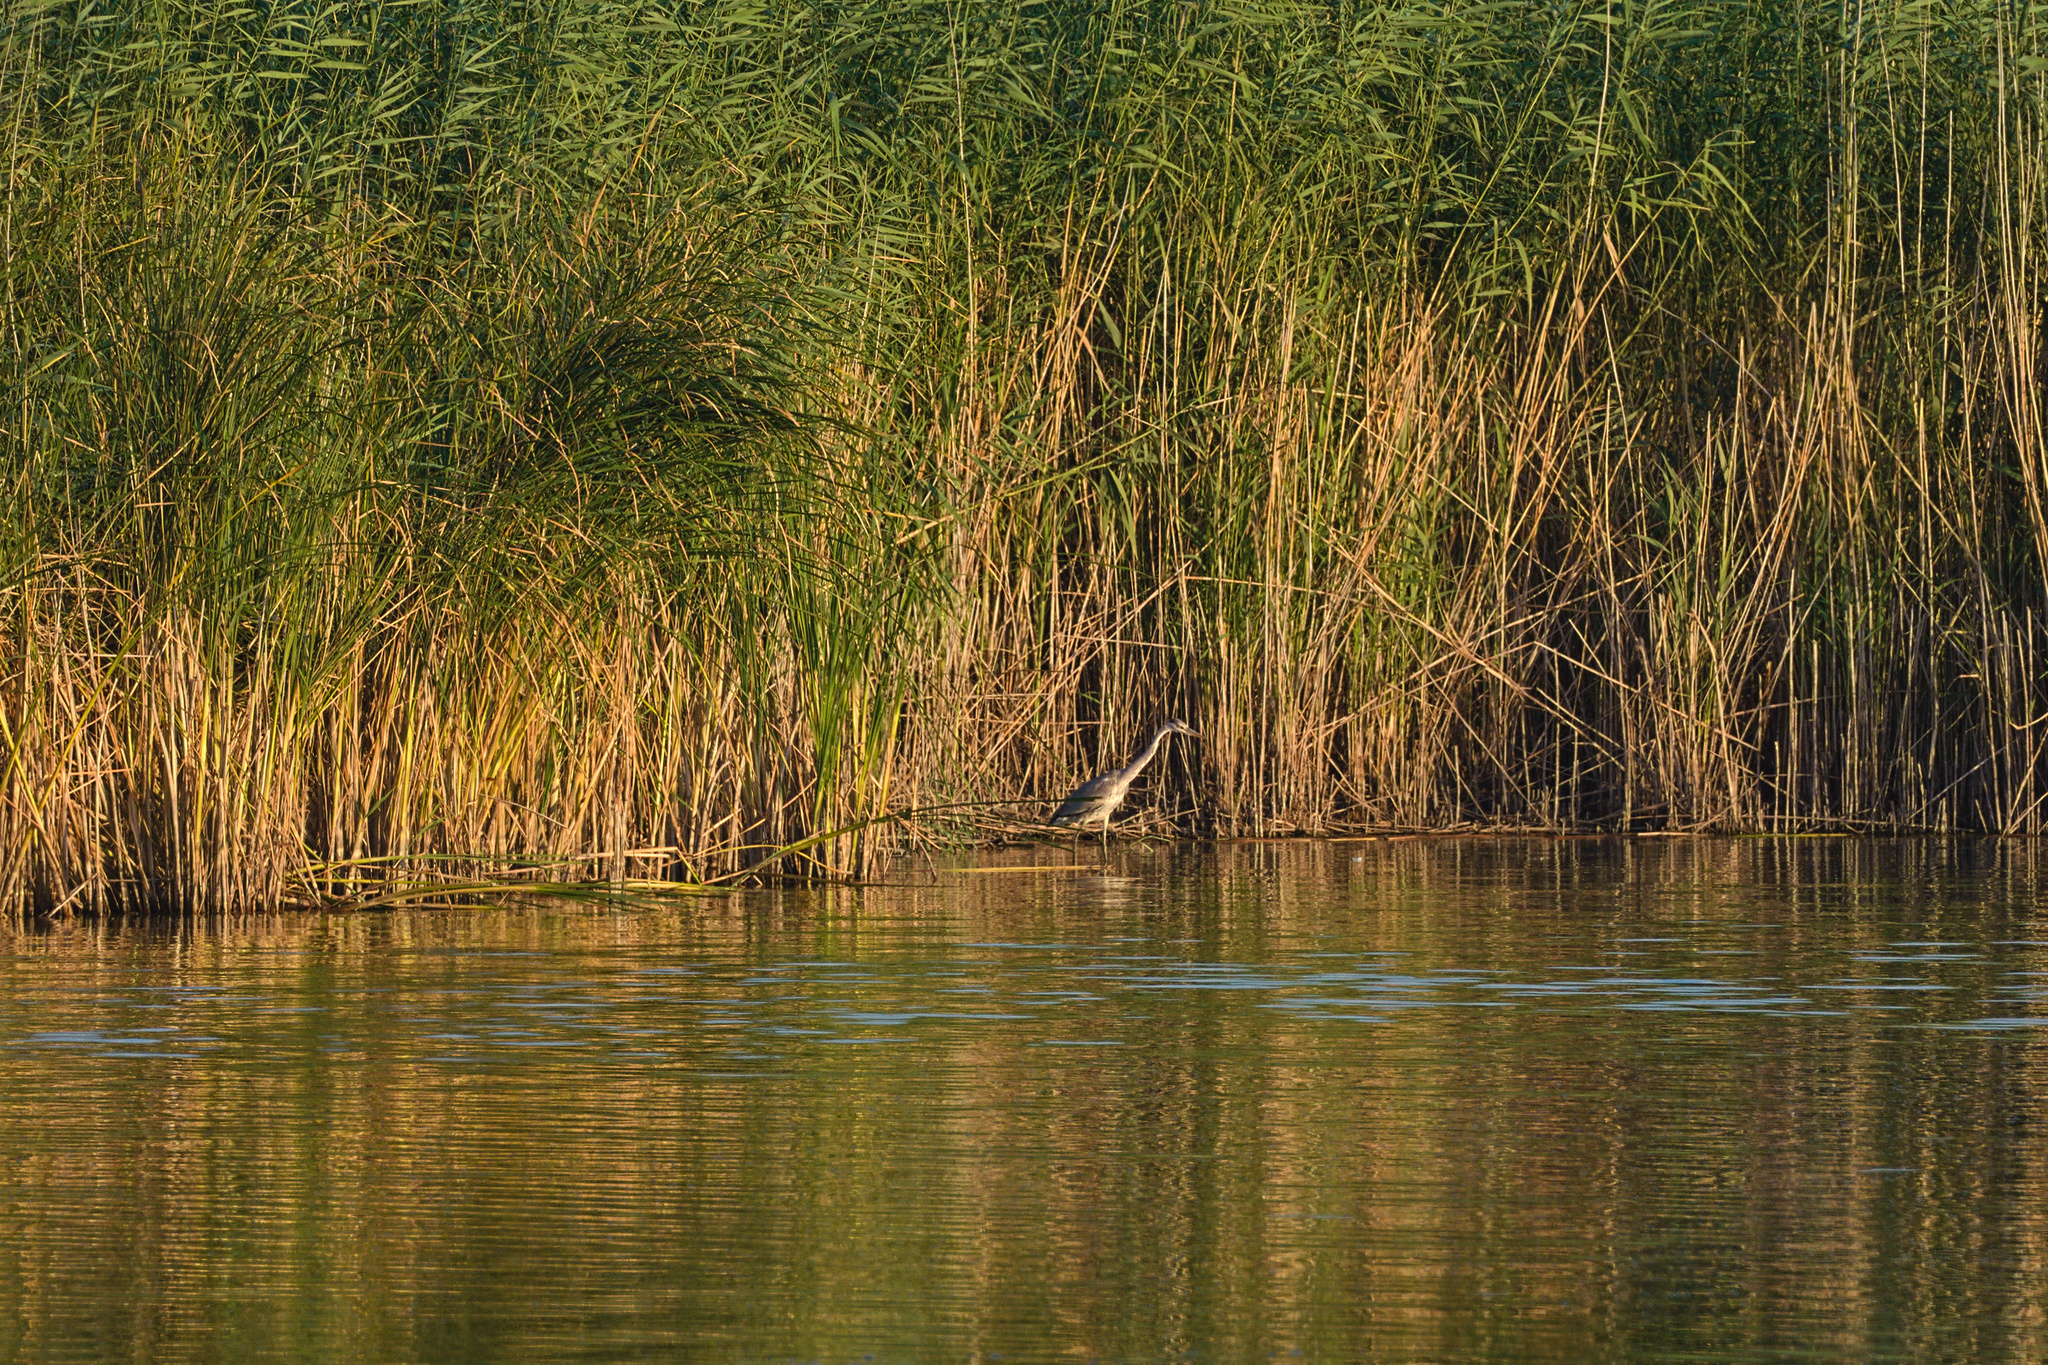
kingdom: Animalia
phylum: Chordata
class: Aves
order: Pelecaniformes
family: Ardeidae
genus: Ardea
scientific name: Ardea cinerea
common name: Grey heron
